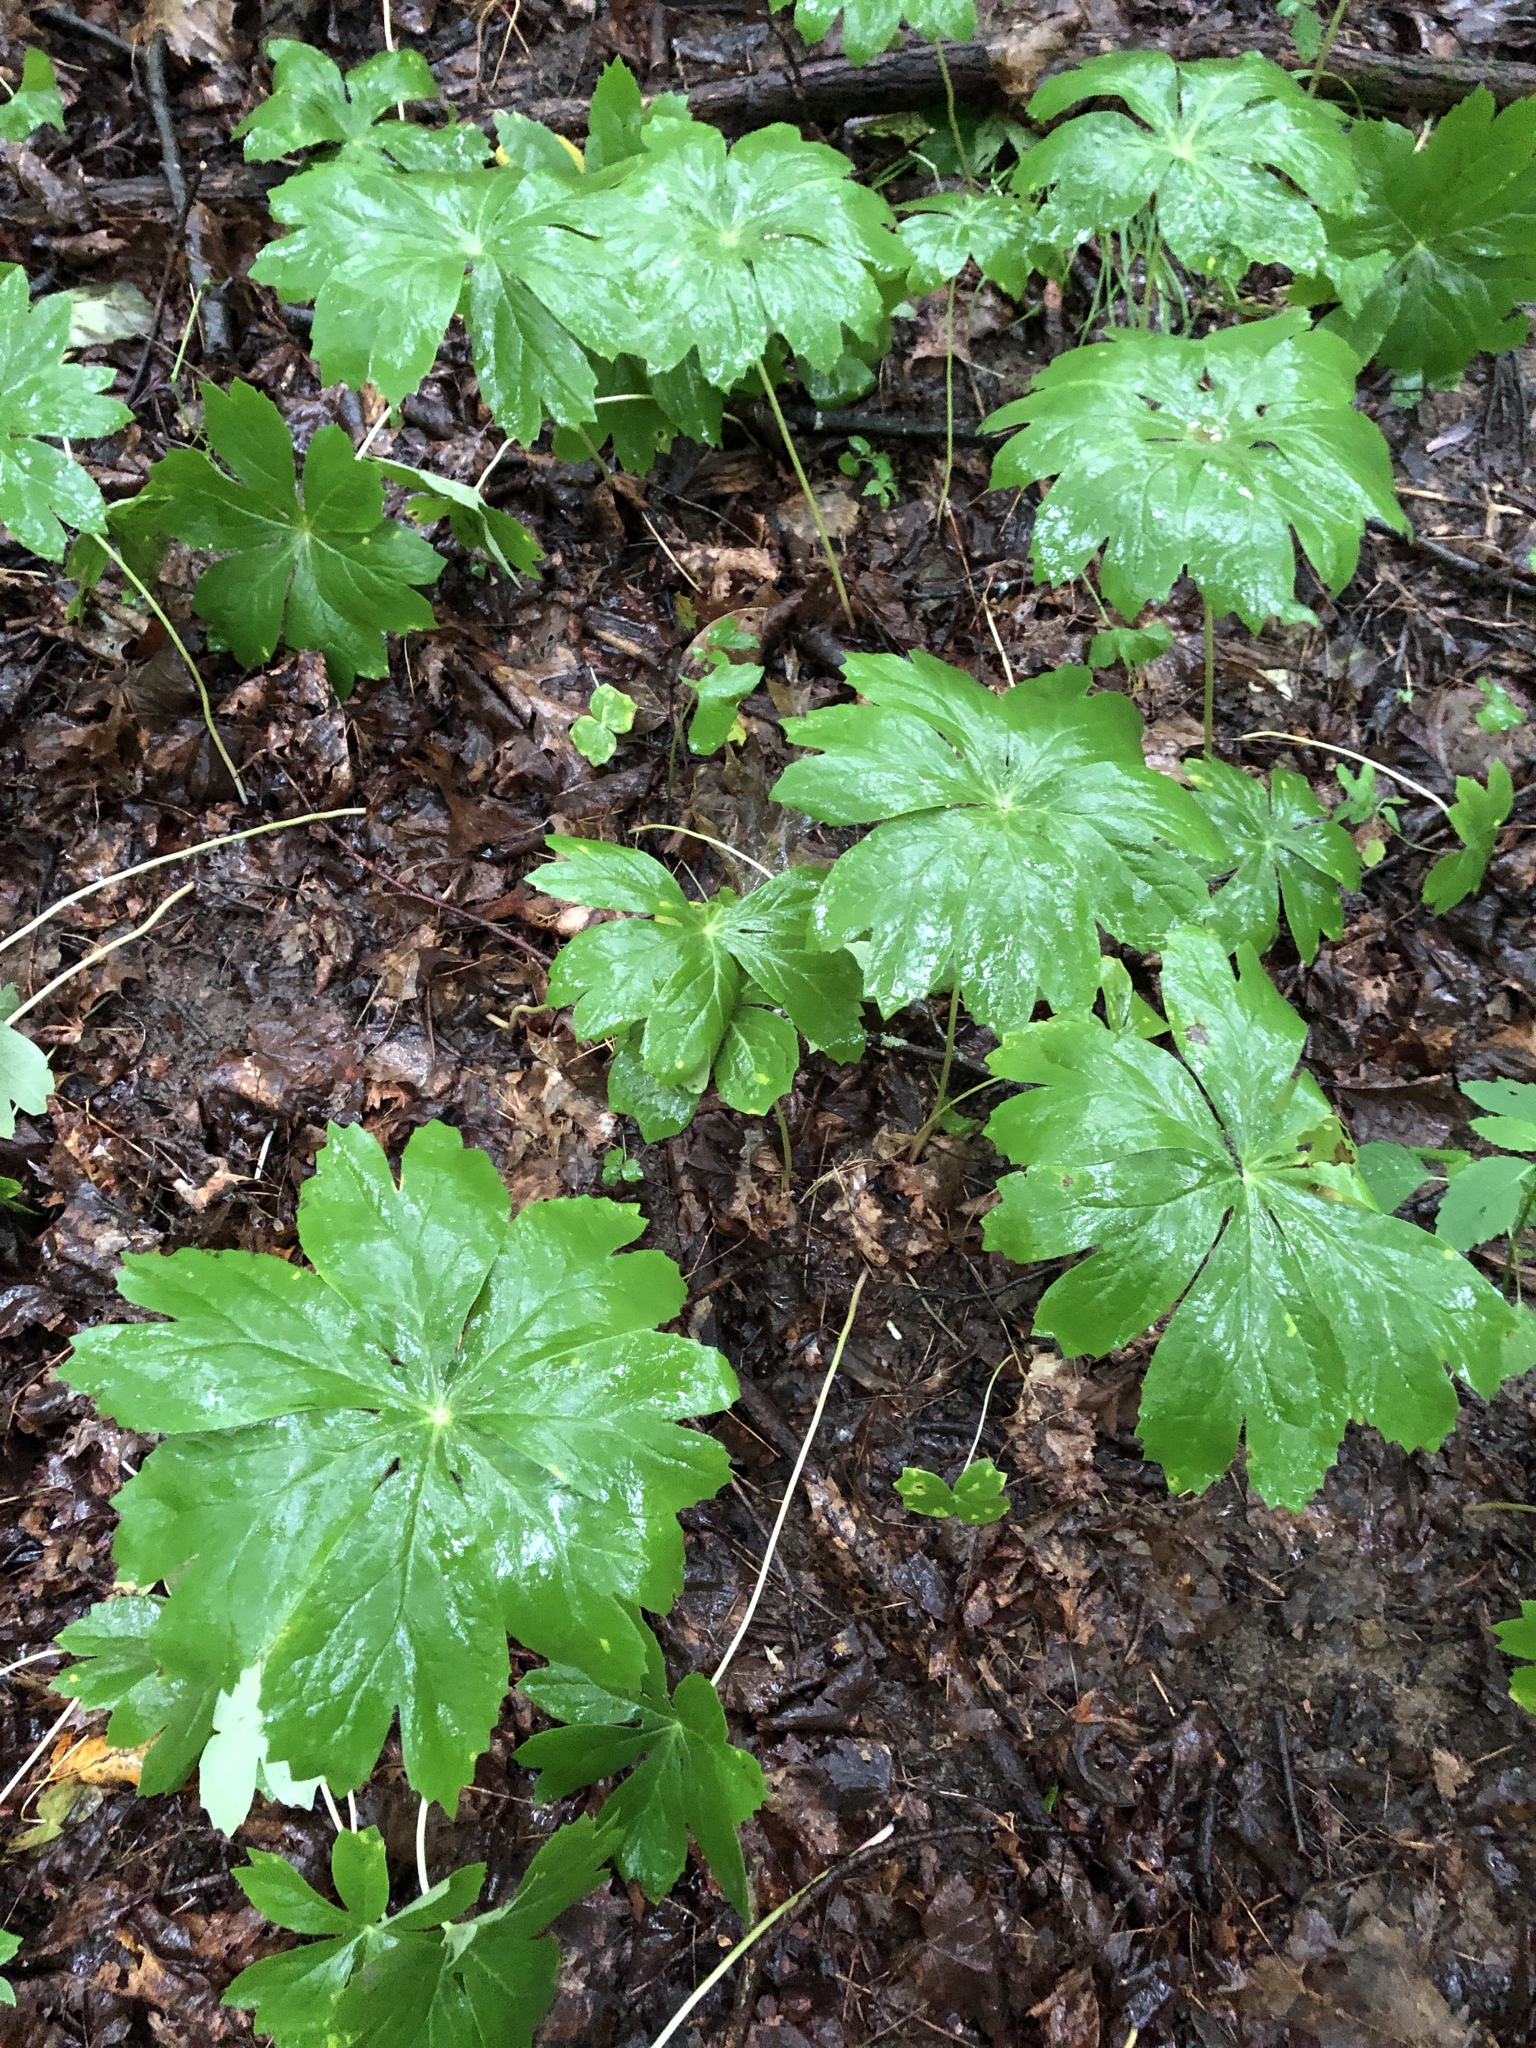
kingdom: Plantae
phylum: Tracheophyta
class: Magnoliopsida
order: Ranunculales
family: Berberidaceae
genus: Podophyllum
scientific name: Podophyllum peltatum
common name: Wild mandrake
